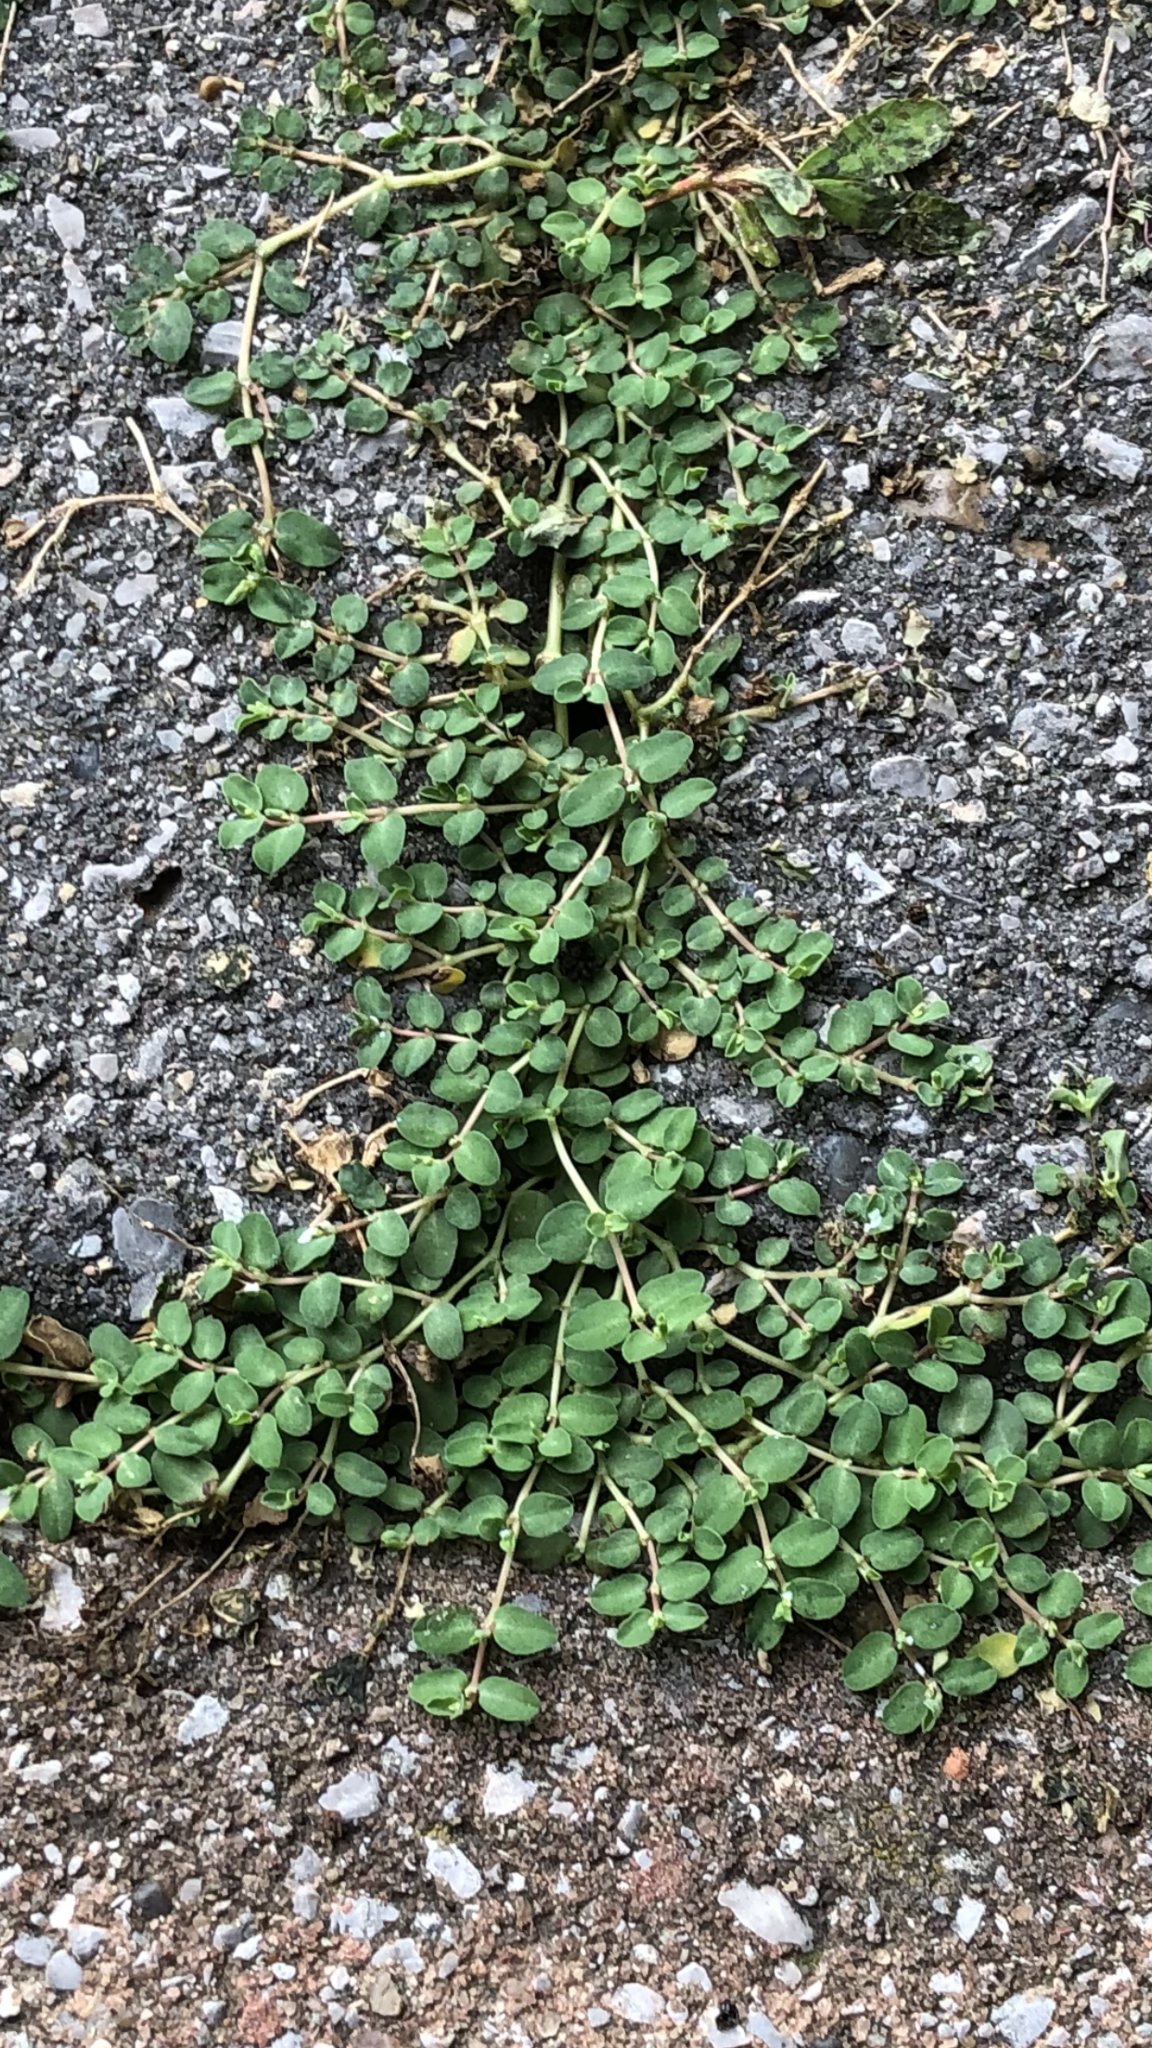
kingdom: Plantae
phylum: Tracheophyta
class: Magnoliopsida
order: Malpighiales
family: Euphorbiaceae
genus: Euphorbia
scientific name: Euphorbia serpens
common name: Matted sandmat
